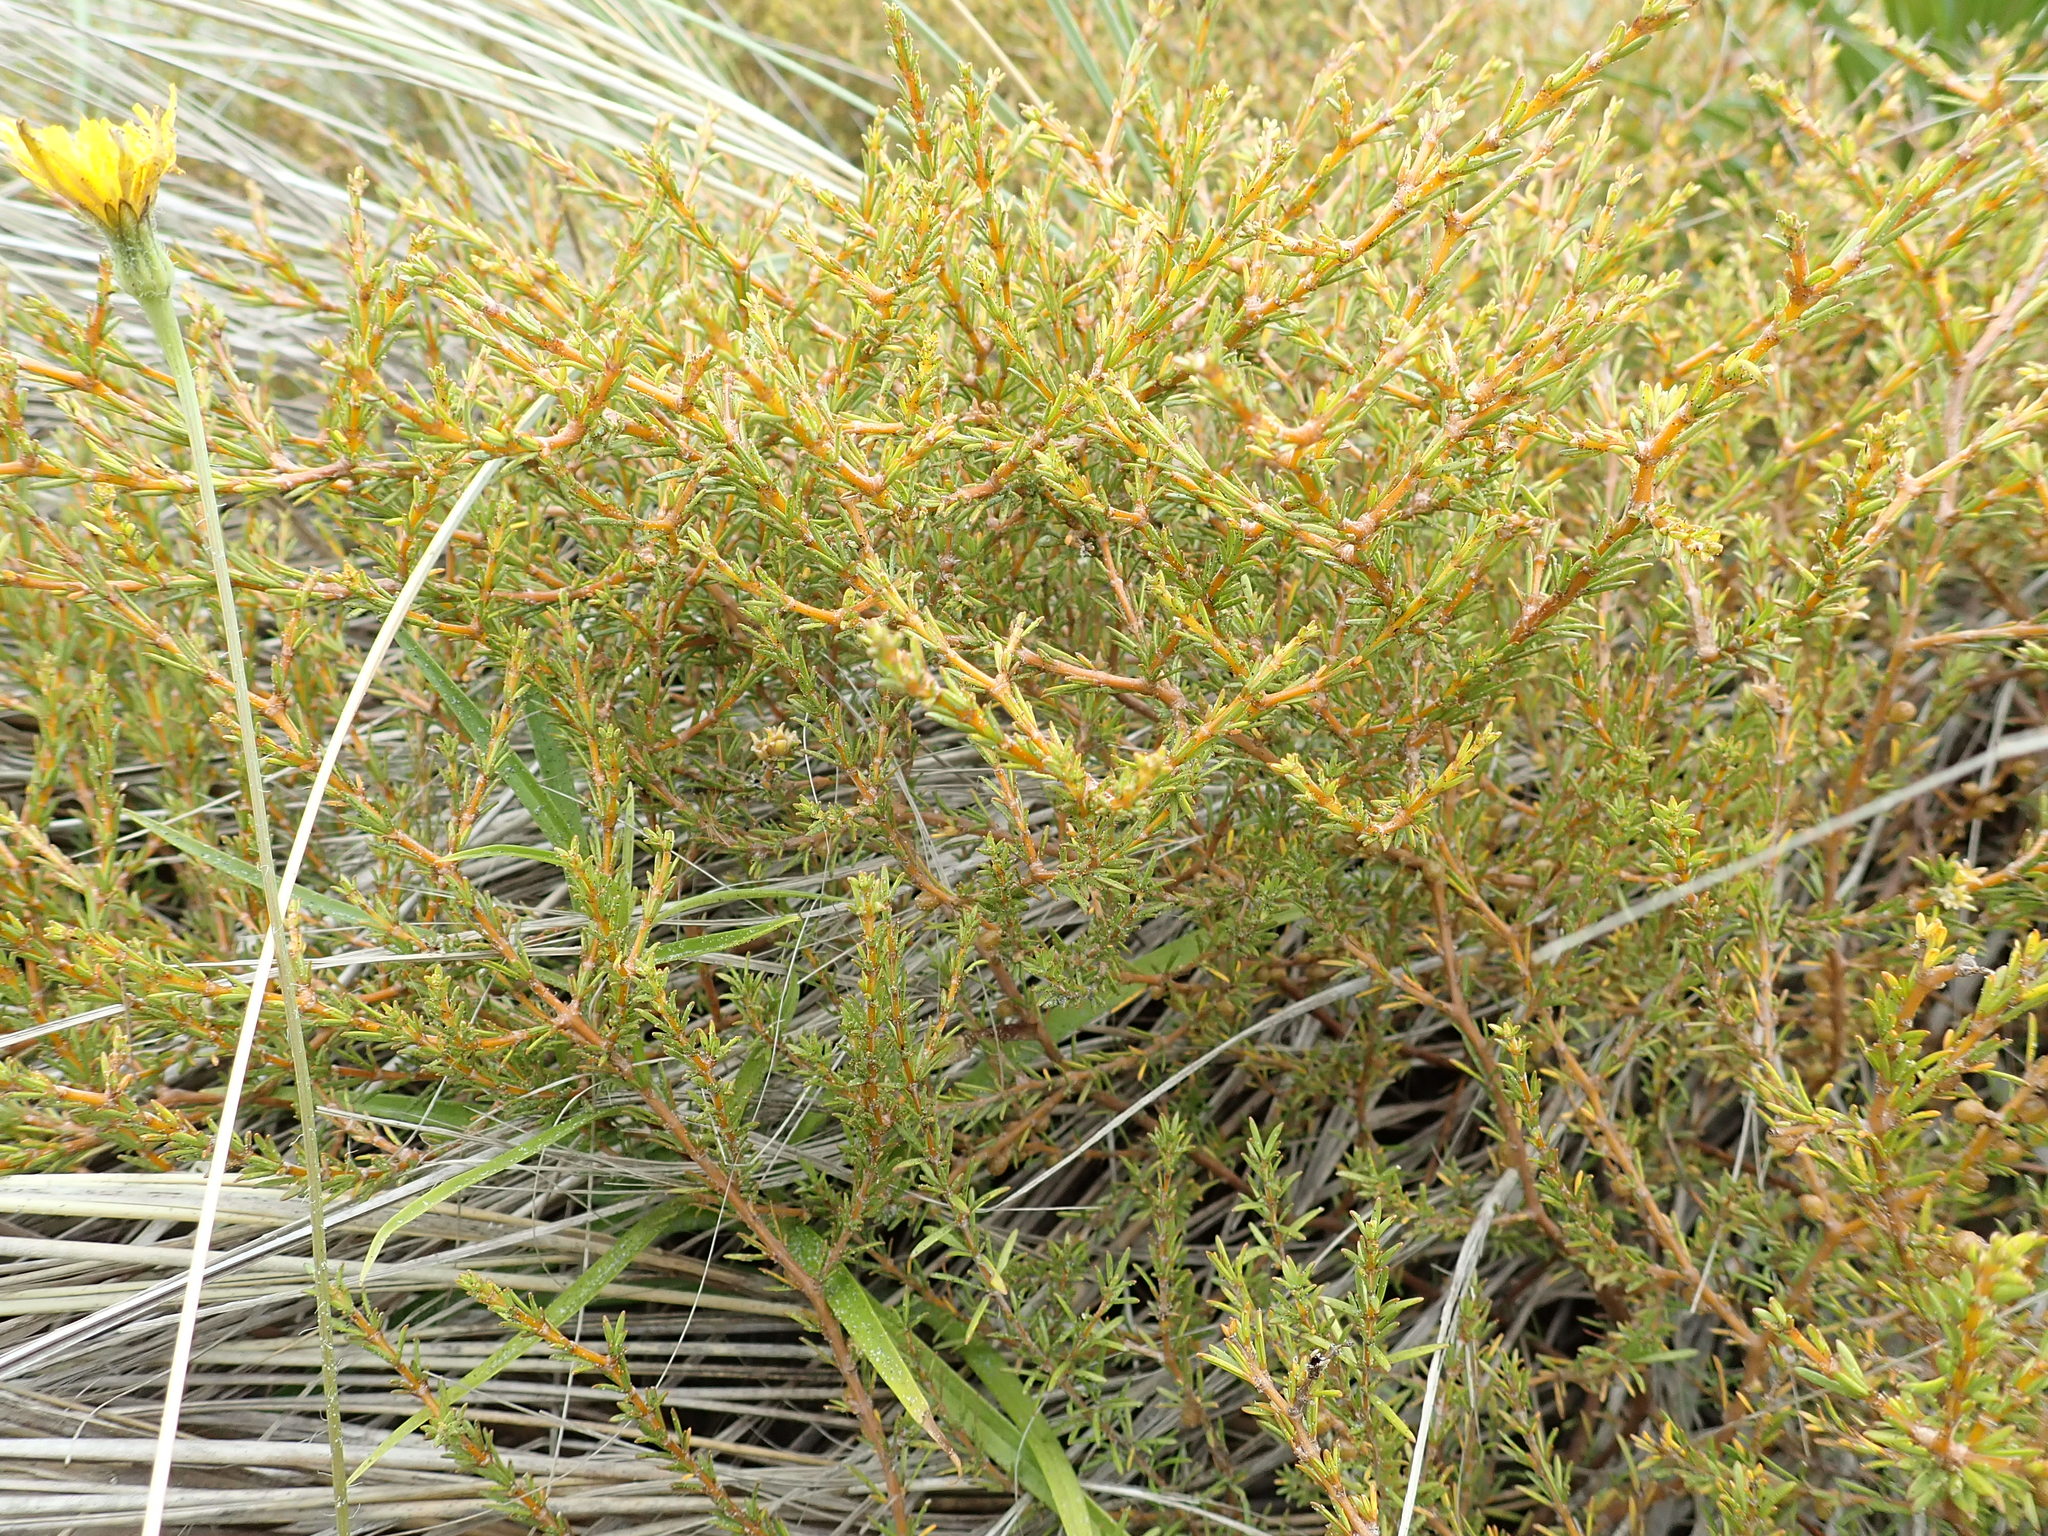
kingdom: Plantae
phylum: Tracheophyta
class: Magnoliopsida
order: Gentianales
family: Rubiaceae
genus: Coprosma
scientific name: Coprosma acerosa
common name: Sand coprosma
